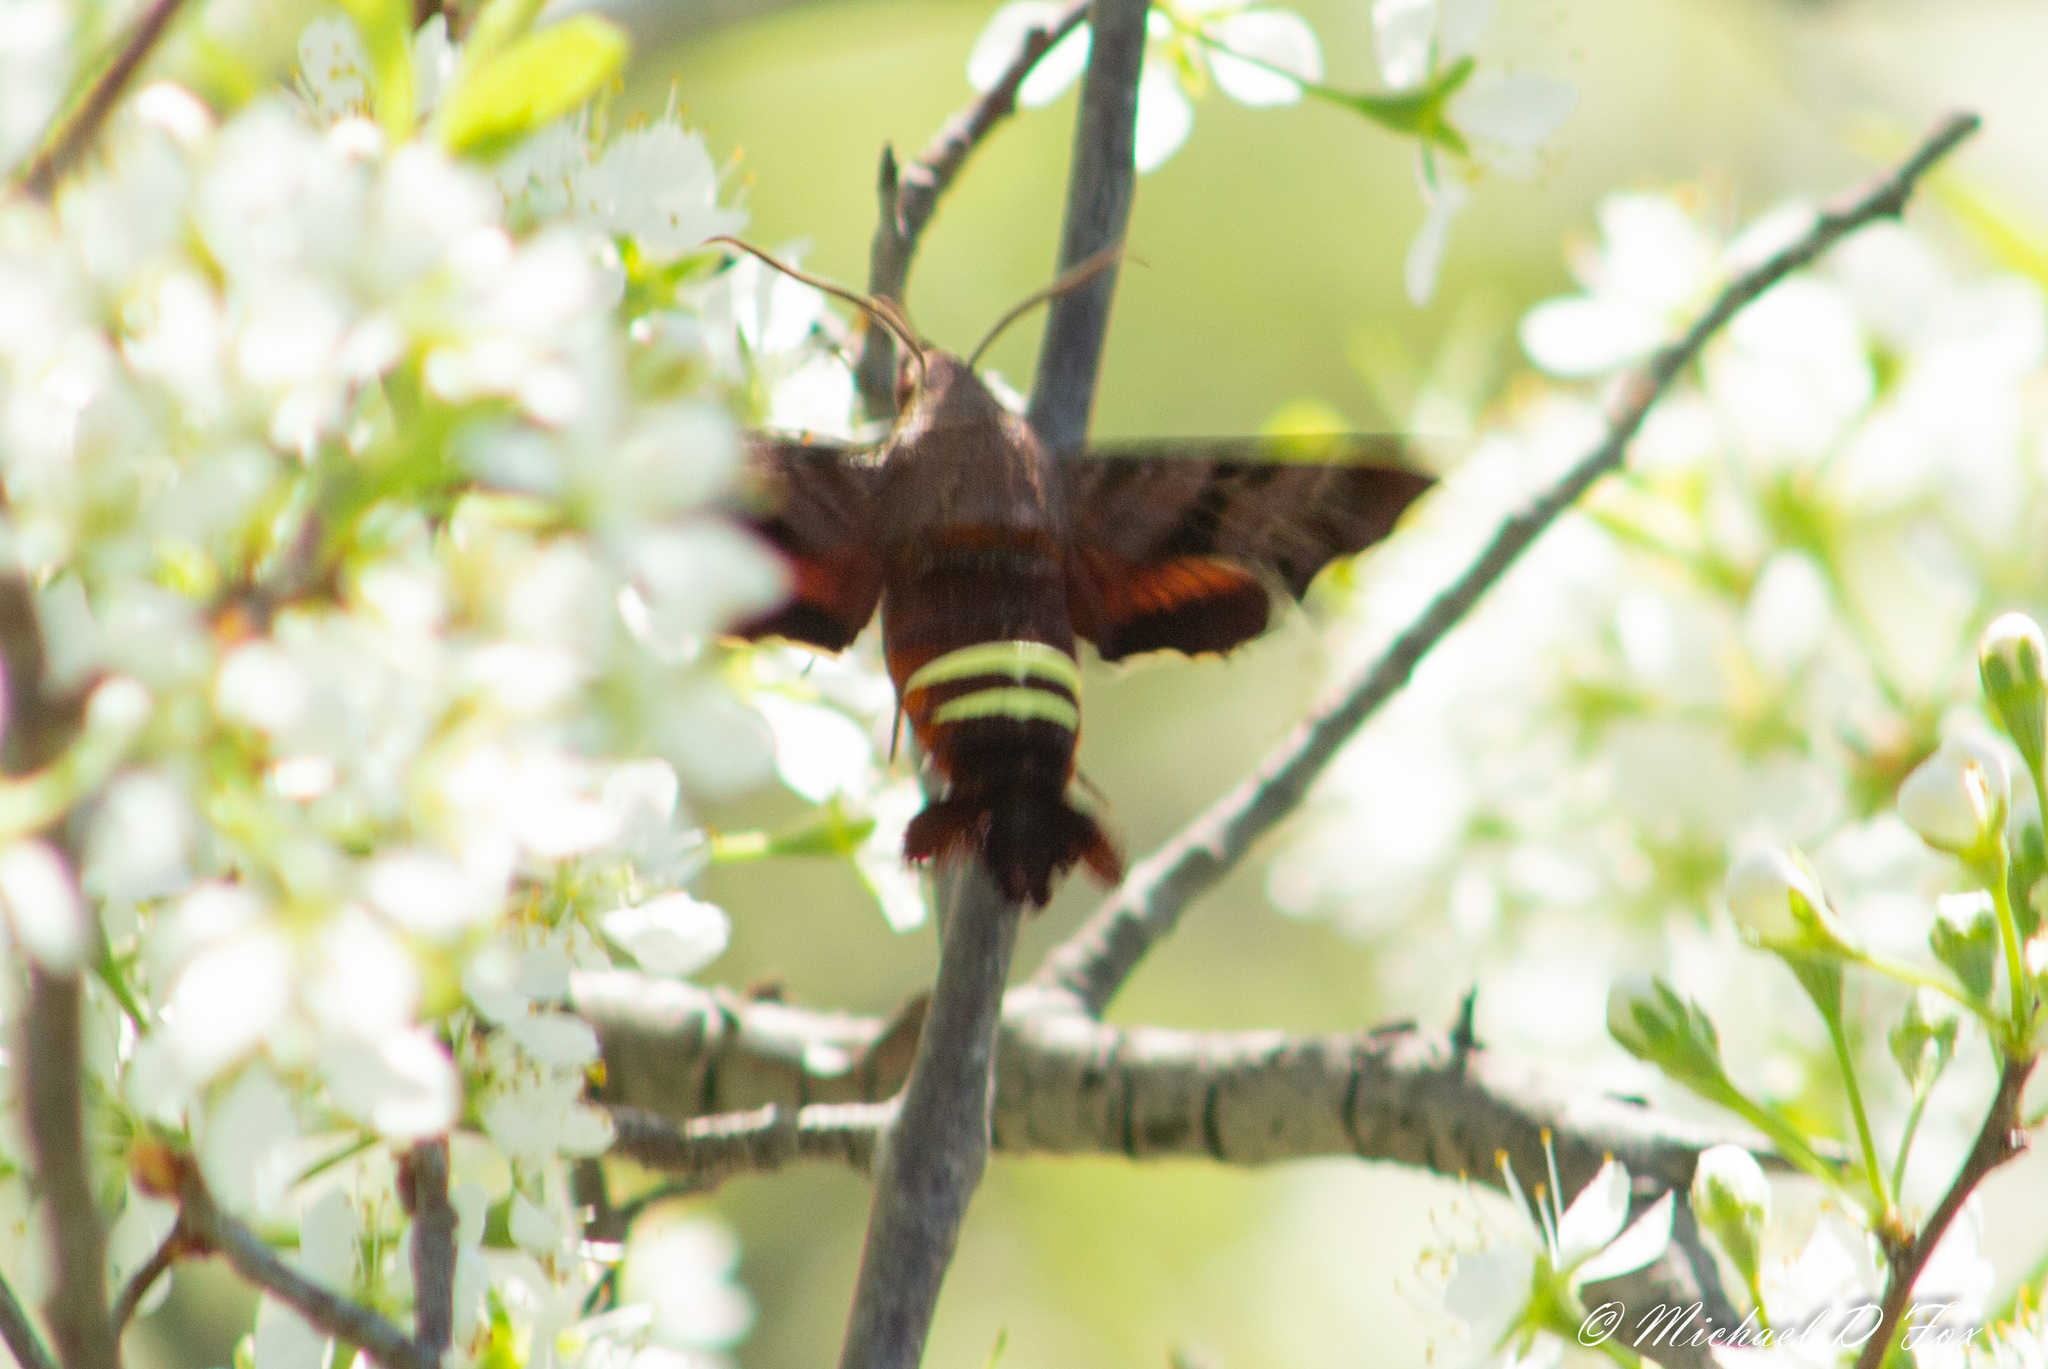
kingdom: Animalia
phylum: Arthropoda
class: Insecta
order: Lepidoptera
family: Sphingidae
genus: Amphion
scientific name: Amphion floridensis
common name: Nessus sphinx
